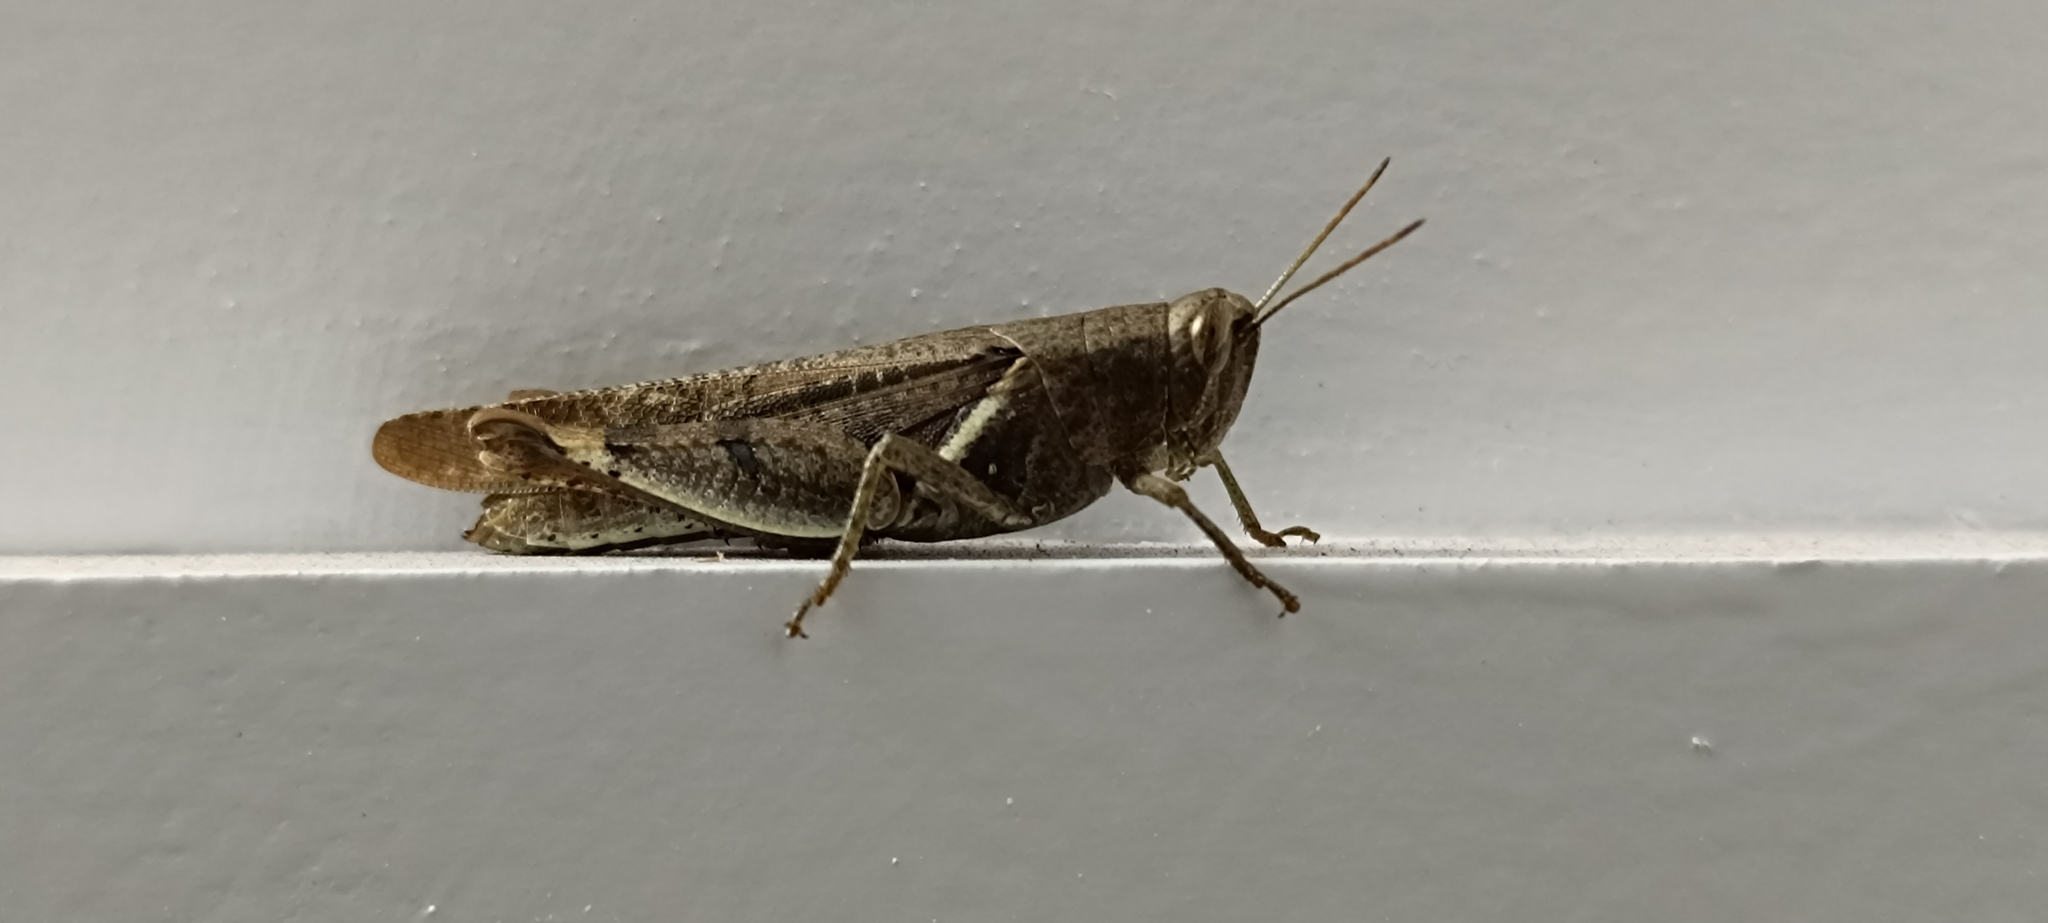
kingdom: Animalia
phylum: Arthropoda
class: Insecta
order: Orthoptera
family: Acrididae
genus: Diabolocatantops
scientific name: Diabolocatantops innotabilis
